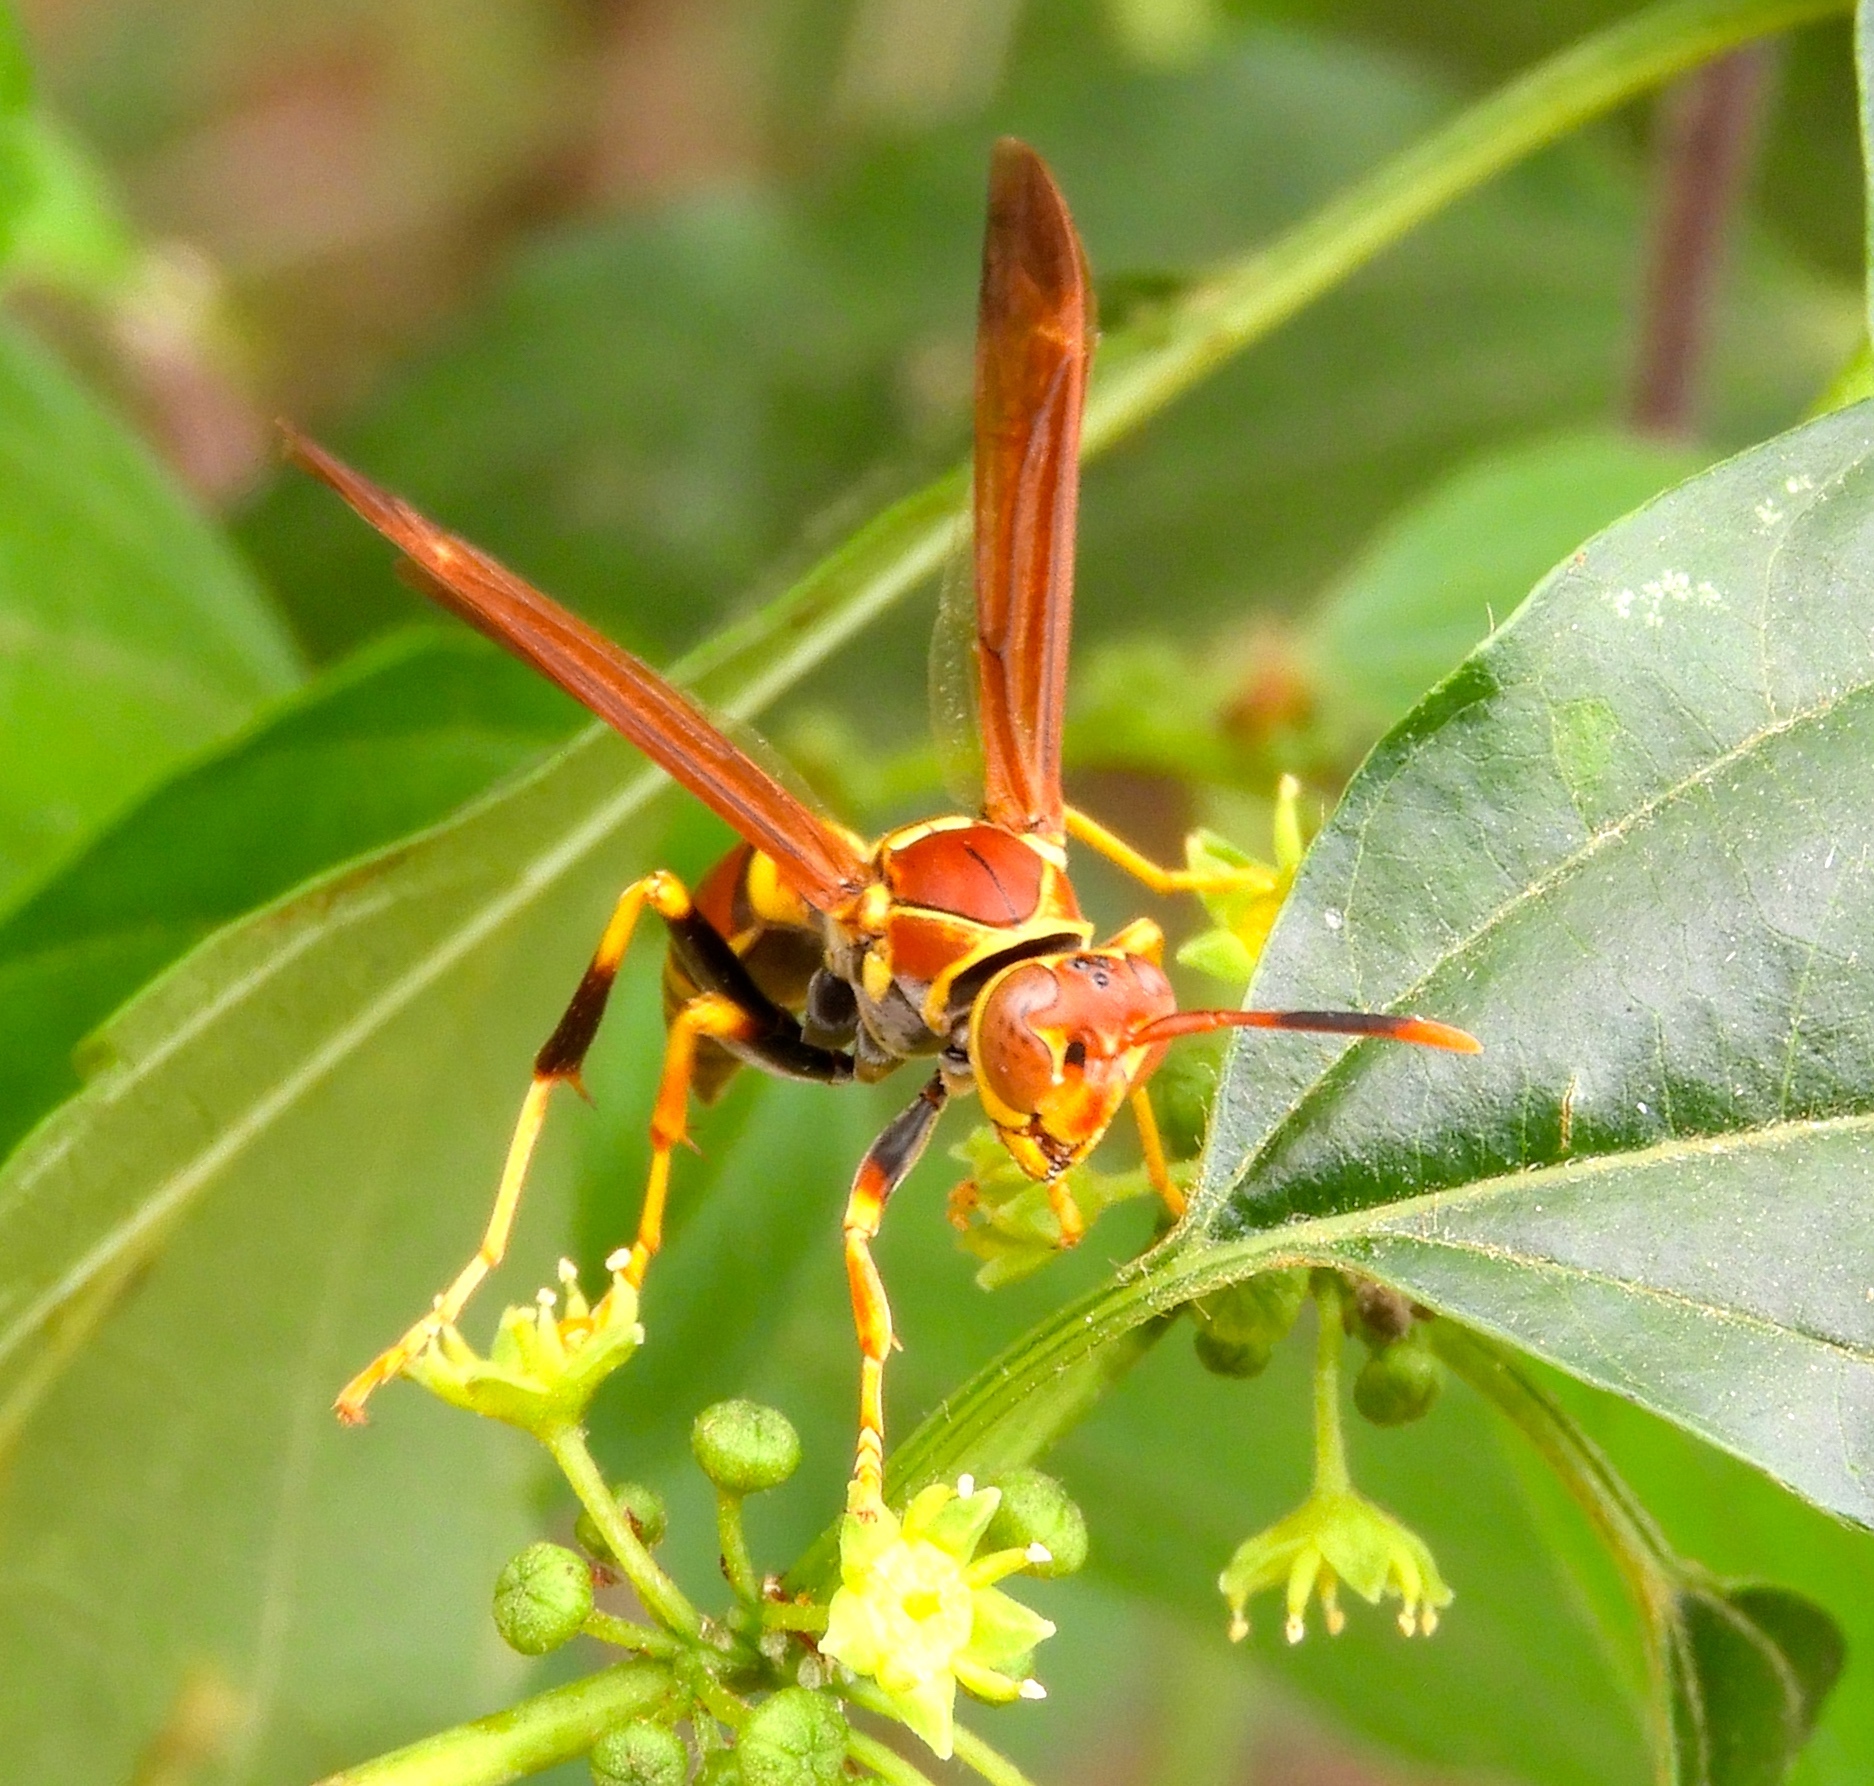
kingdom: Animalia
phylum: Arthropoda
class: Insecta
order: Hymenoptera
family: Pompilidae
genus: Aphanilopterus
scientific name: Aphanilopterus
